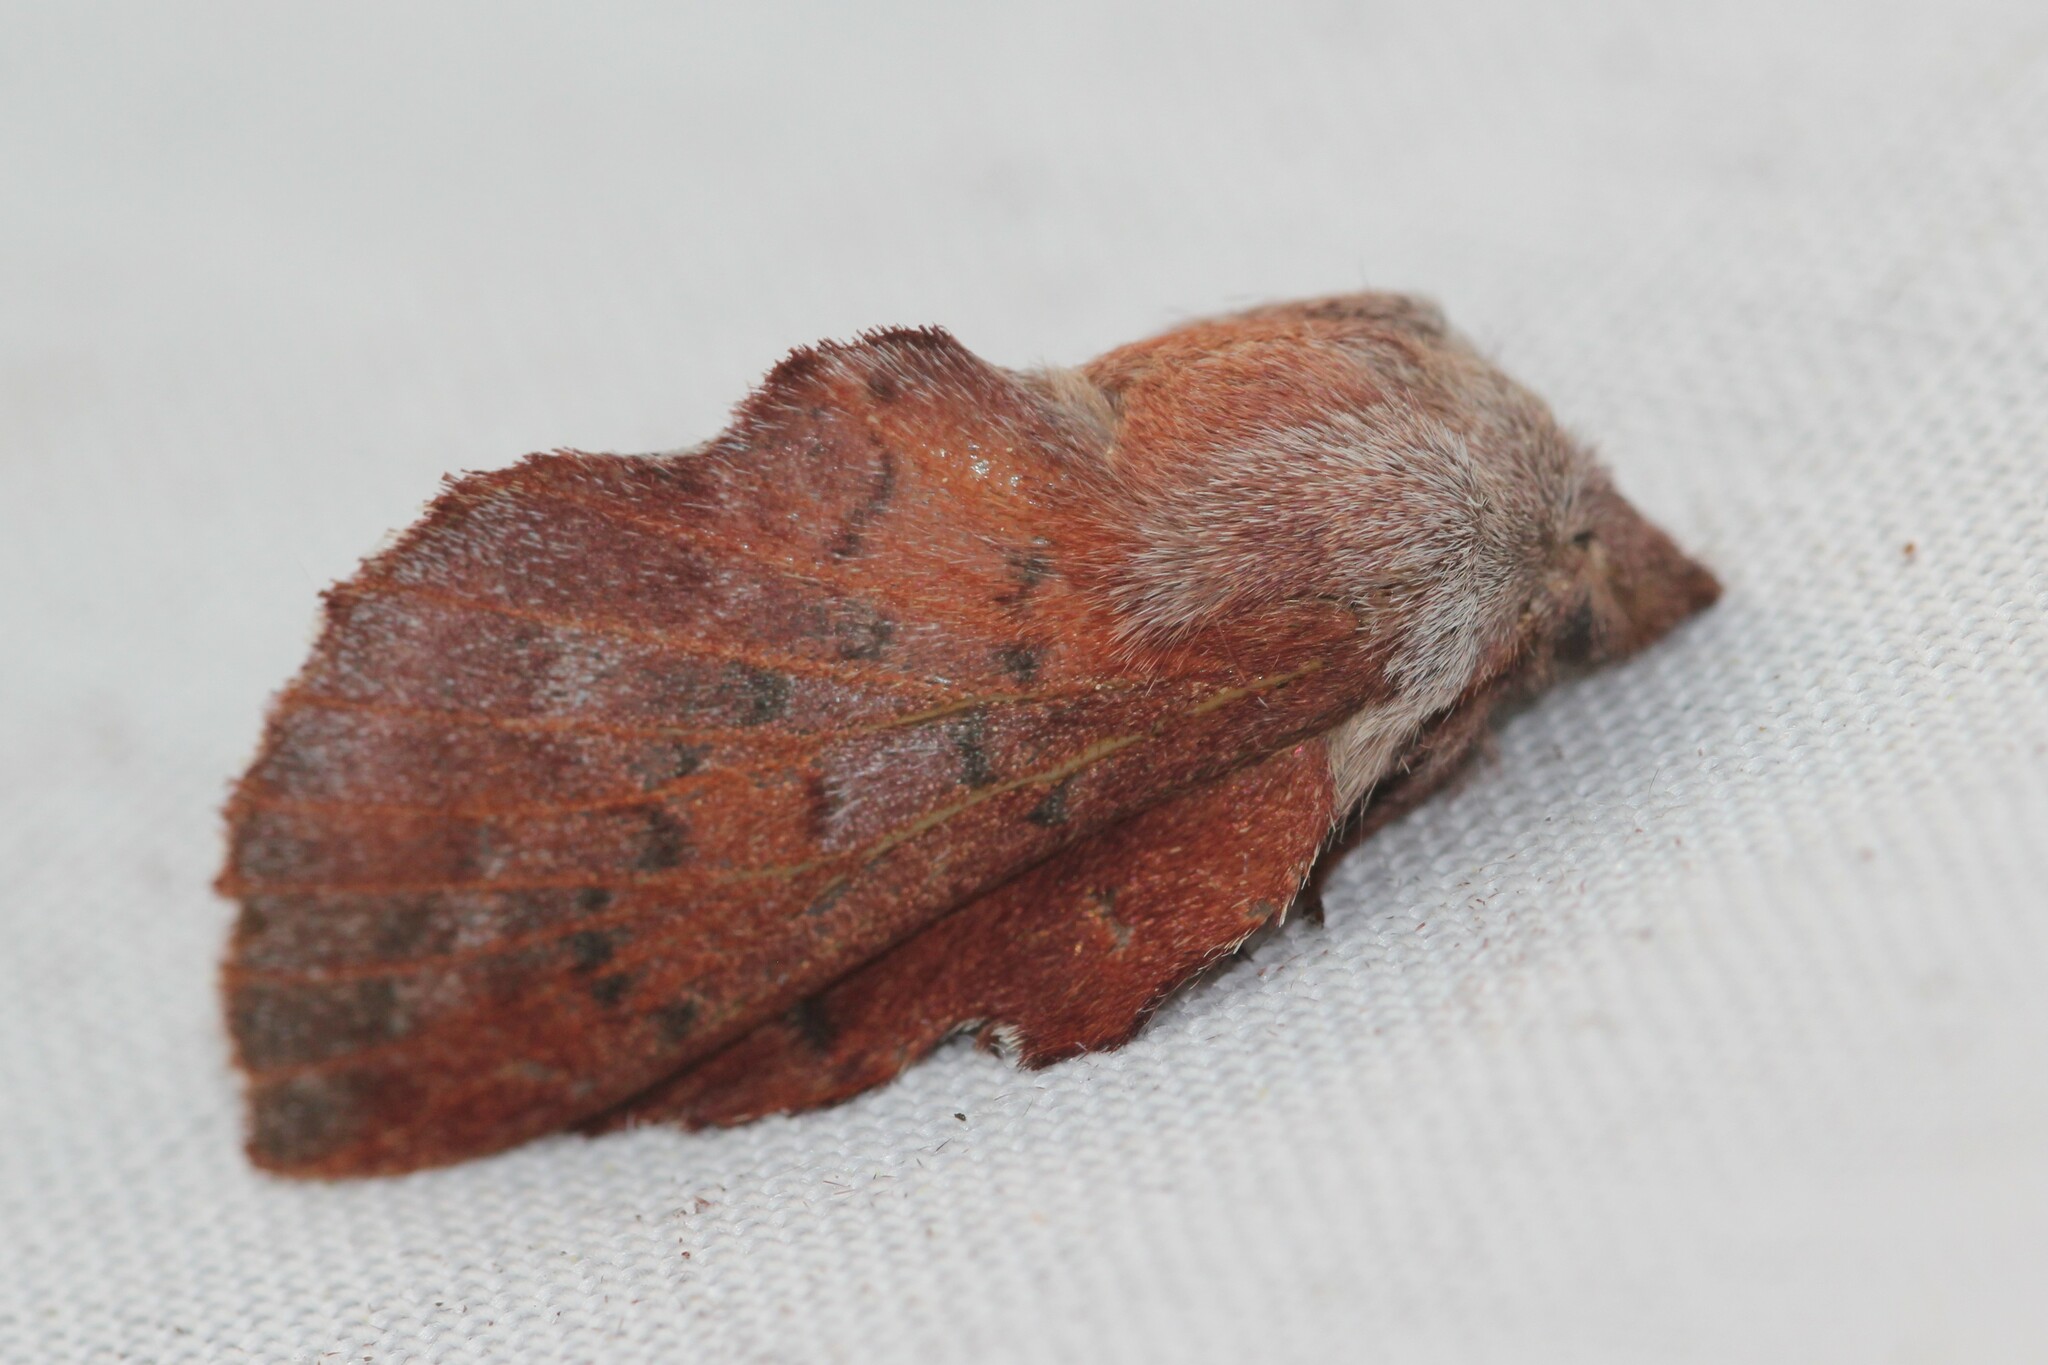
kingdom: Animalia
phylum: Arthropoda
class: Insecta
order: Lepidoptera
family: Lasiocampidae
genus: Phyllodesma
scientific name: Phyllodesma americana
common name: American lappet moth
